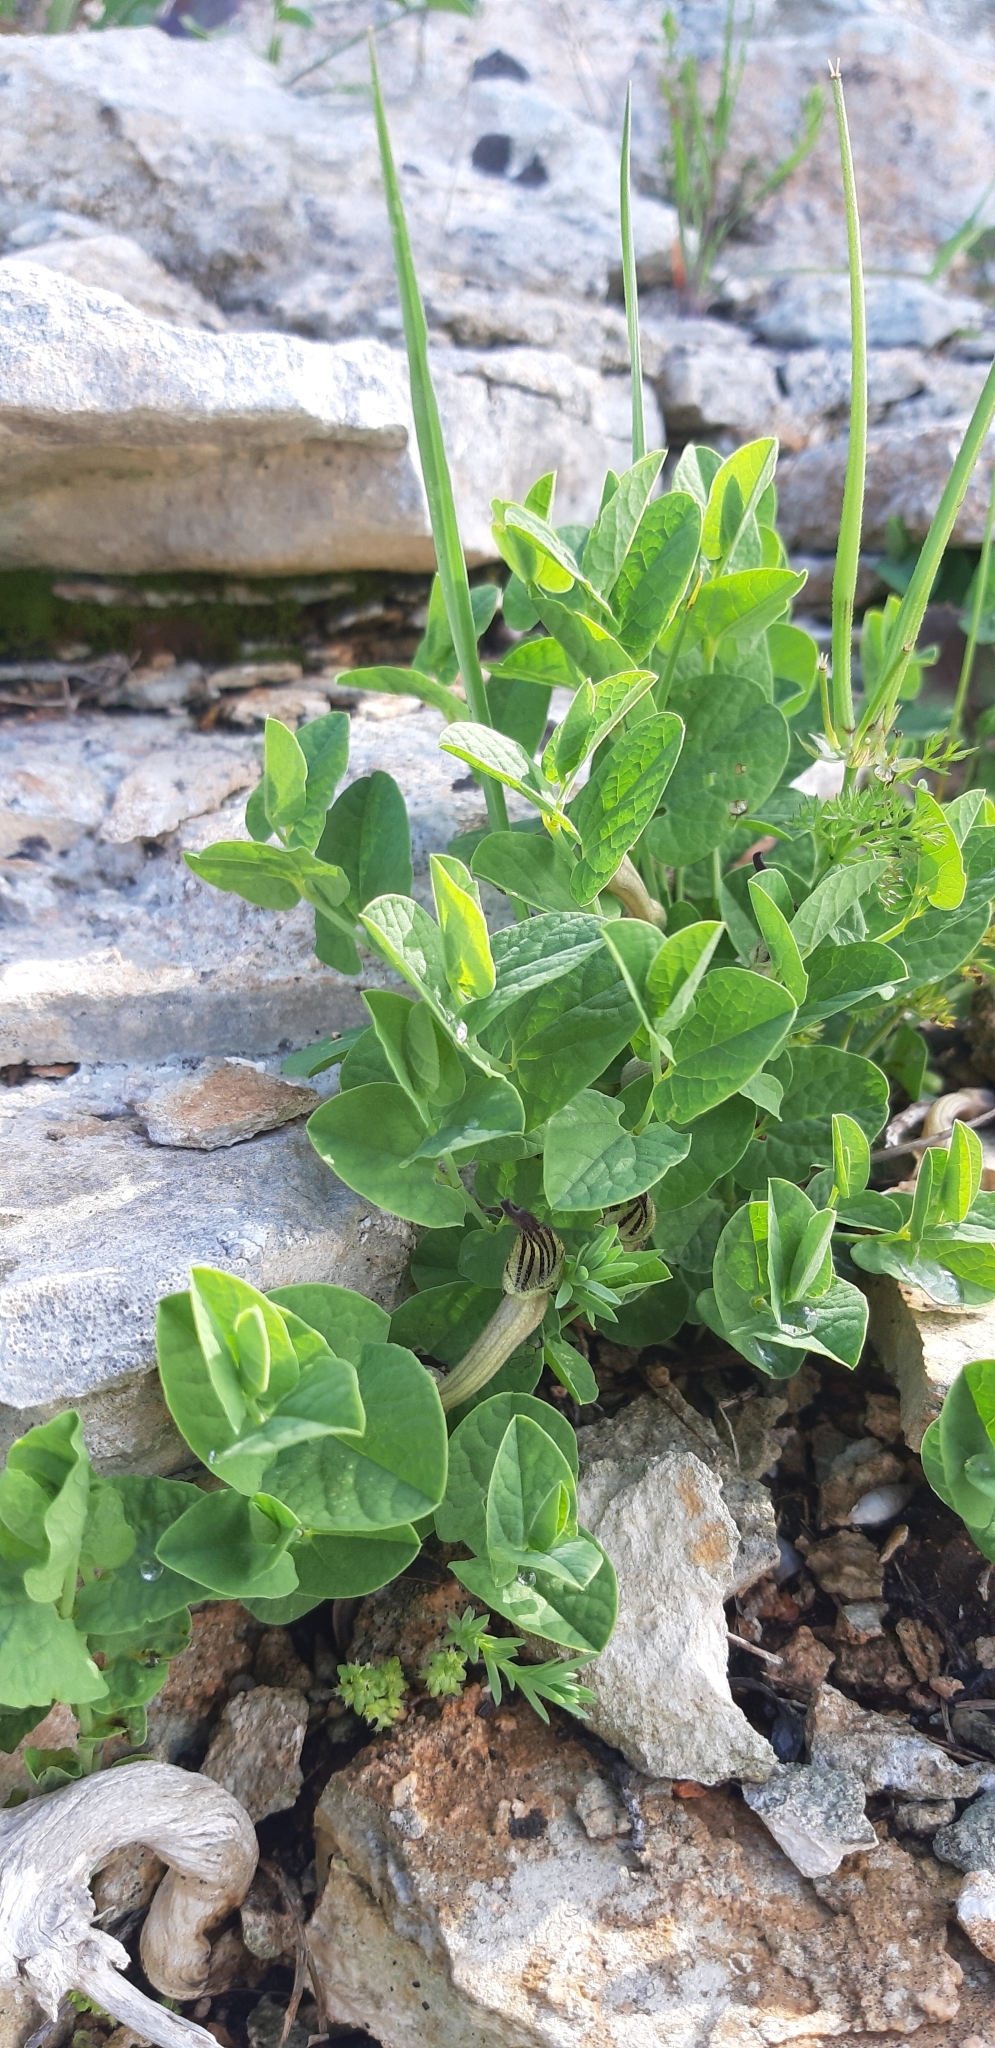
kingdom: Plantae
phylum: Tracheophyta
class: Magnoliopsida
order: Piperales
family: Aristolochiaceae
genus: Aristolochia
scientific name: Aristolochia clusii
